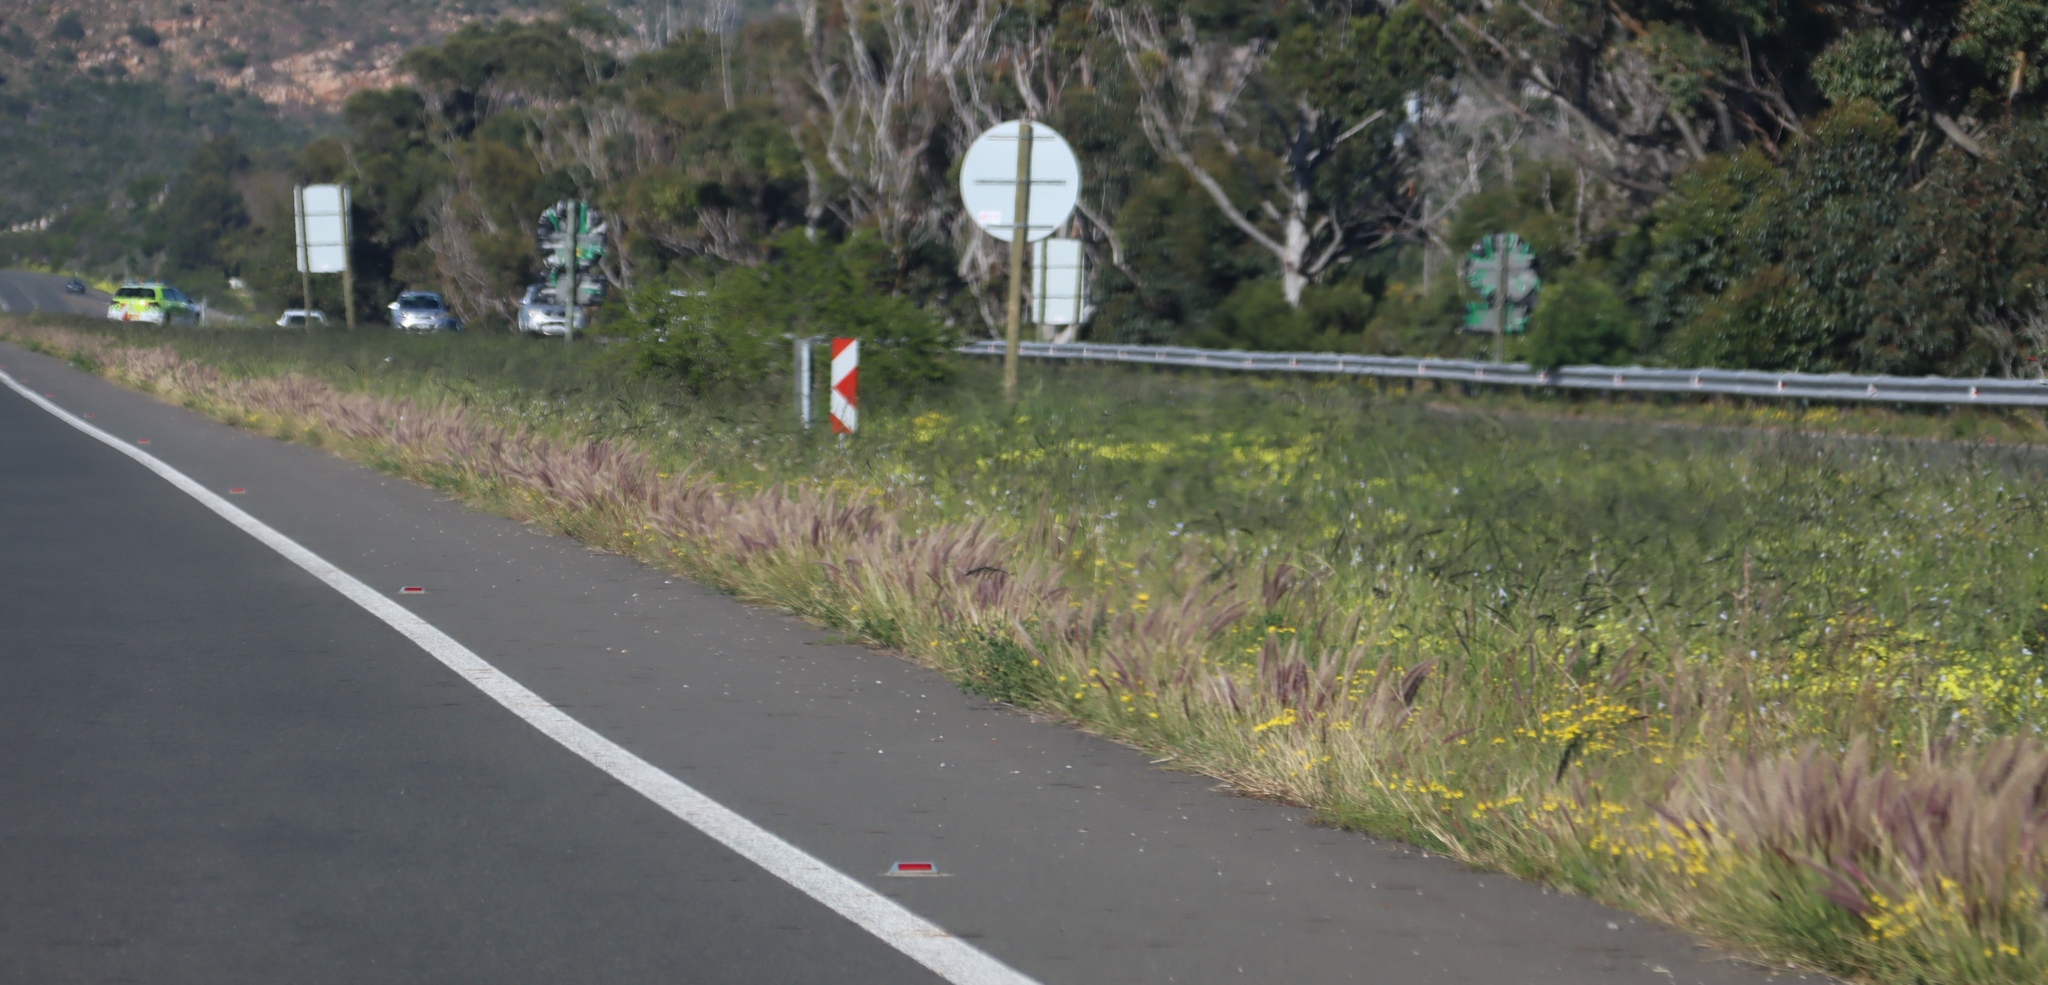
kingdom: Plantae
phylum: Tracheophyta
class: Liliopsida
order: Poales
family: Poaceae
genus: Cenchrus
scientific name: Cenchrus setaceus
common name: Crimson fountaingrass
